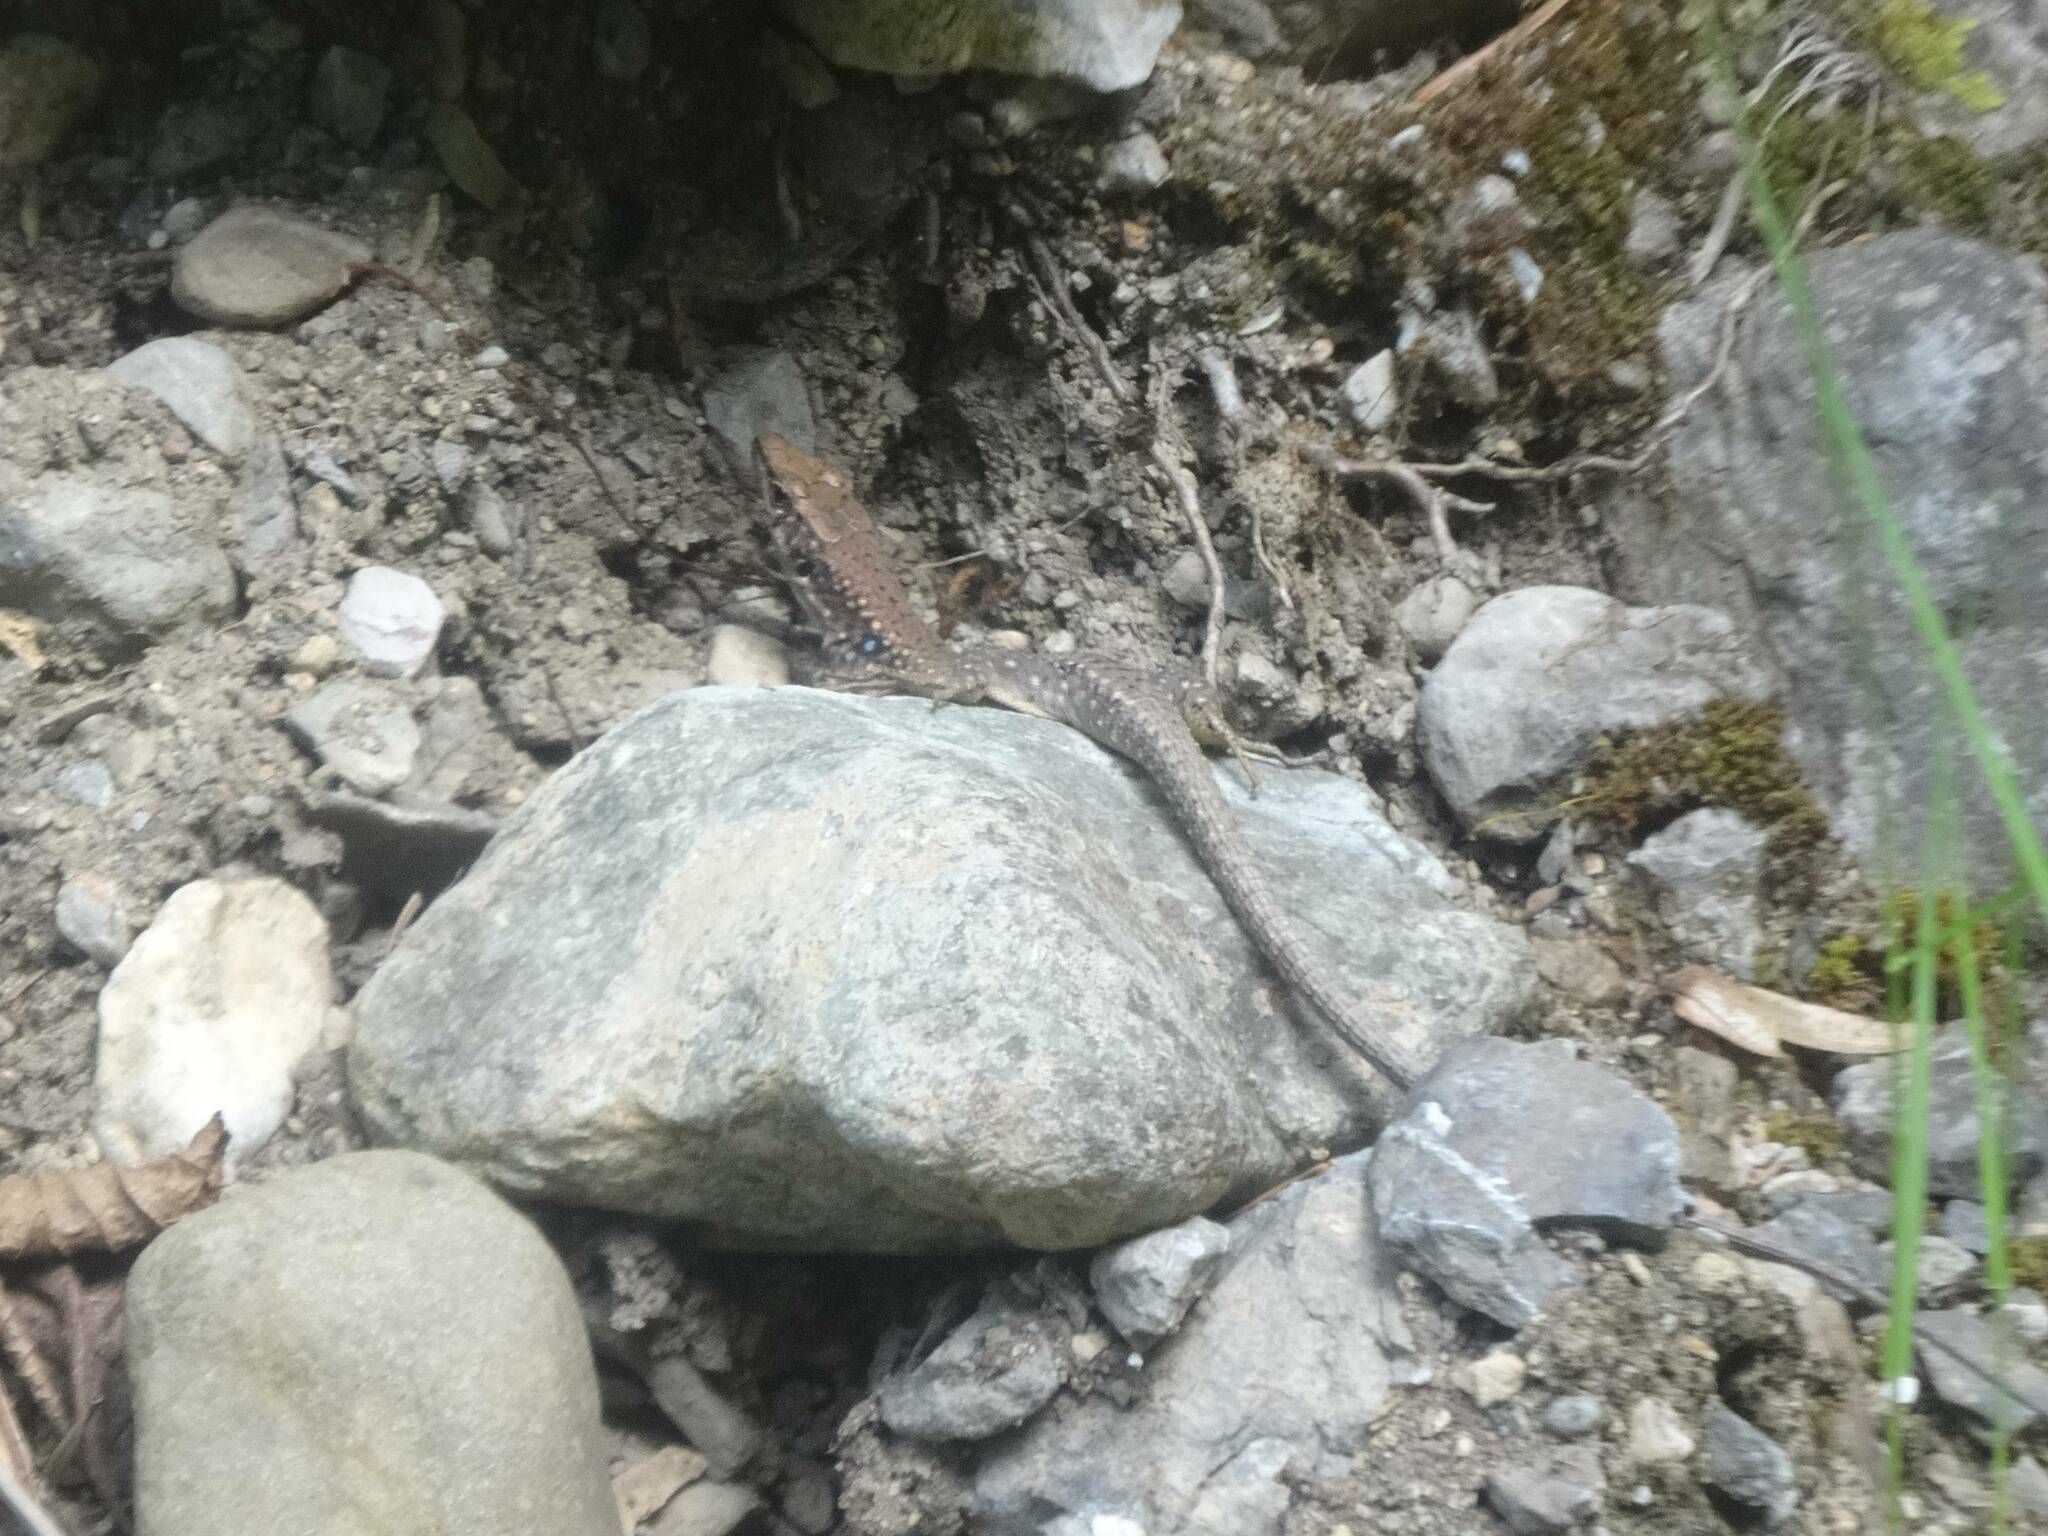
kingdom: Animalia
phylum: Chordata
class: Squamata
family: Lacertidae
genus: Darevskia
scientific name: Darevskia bithynica
